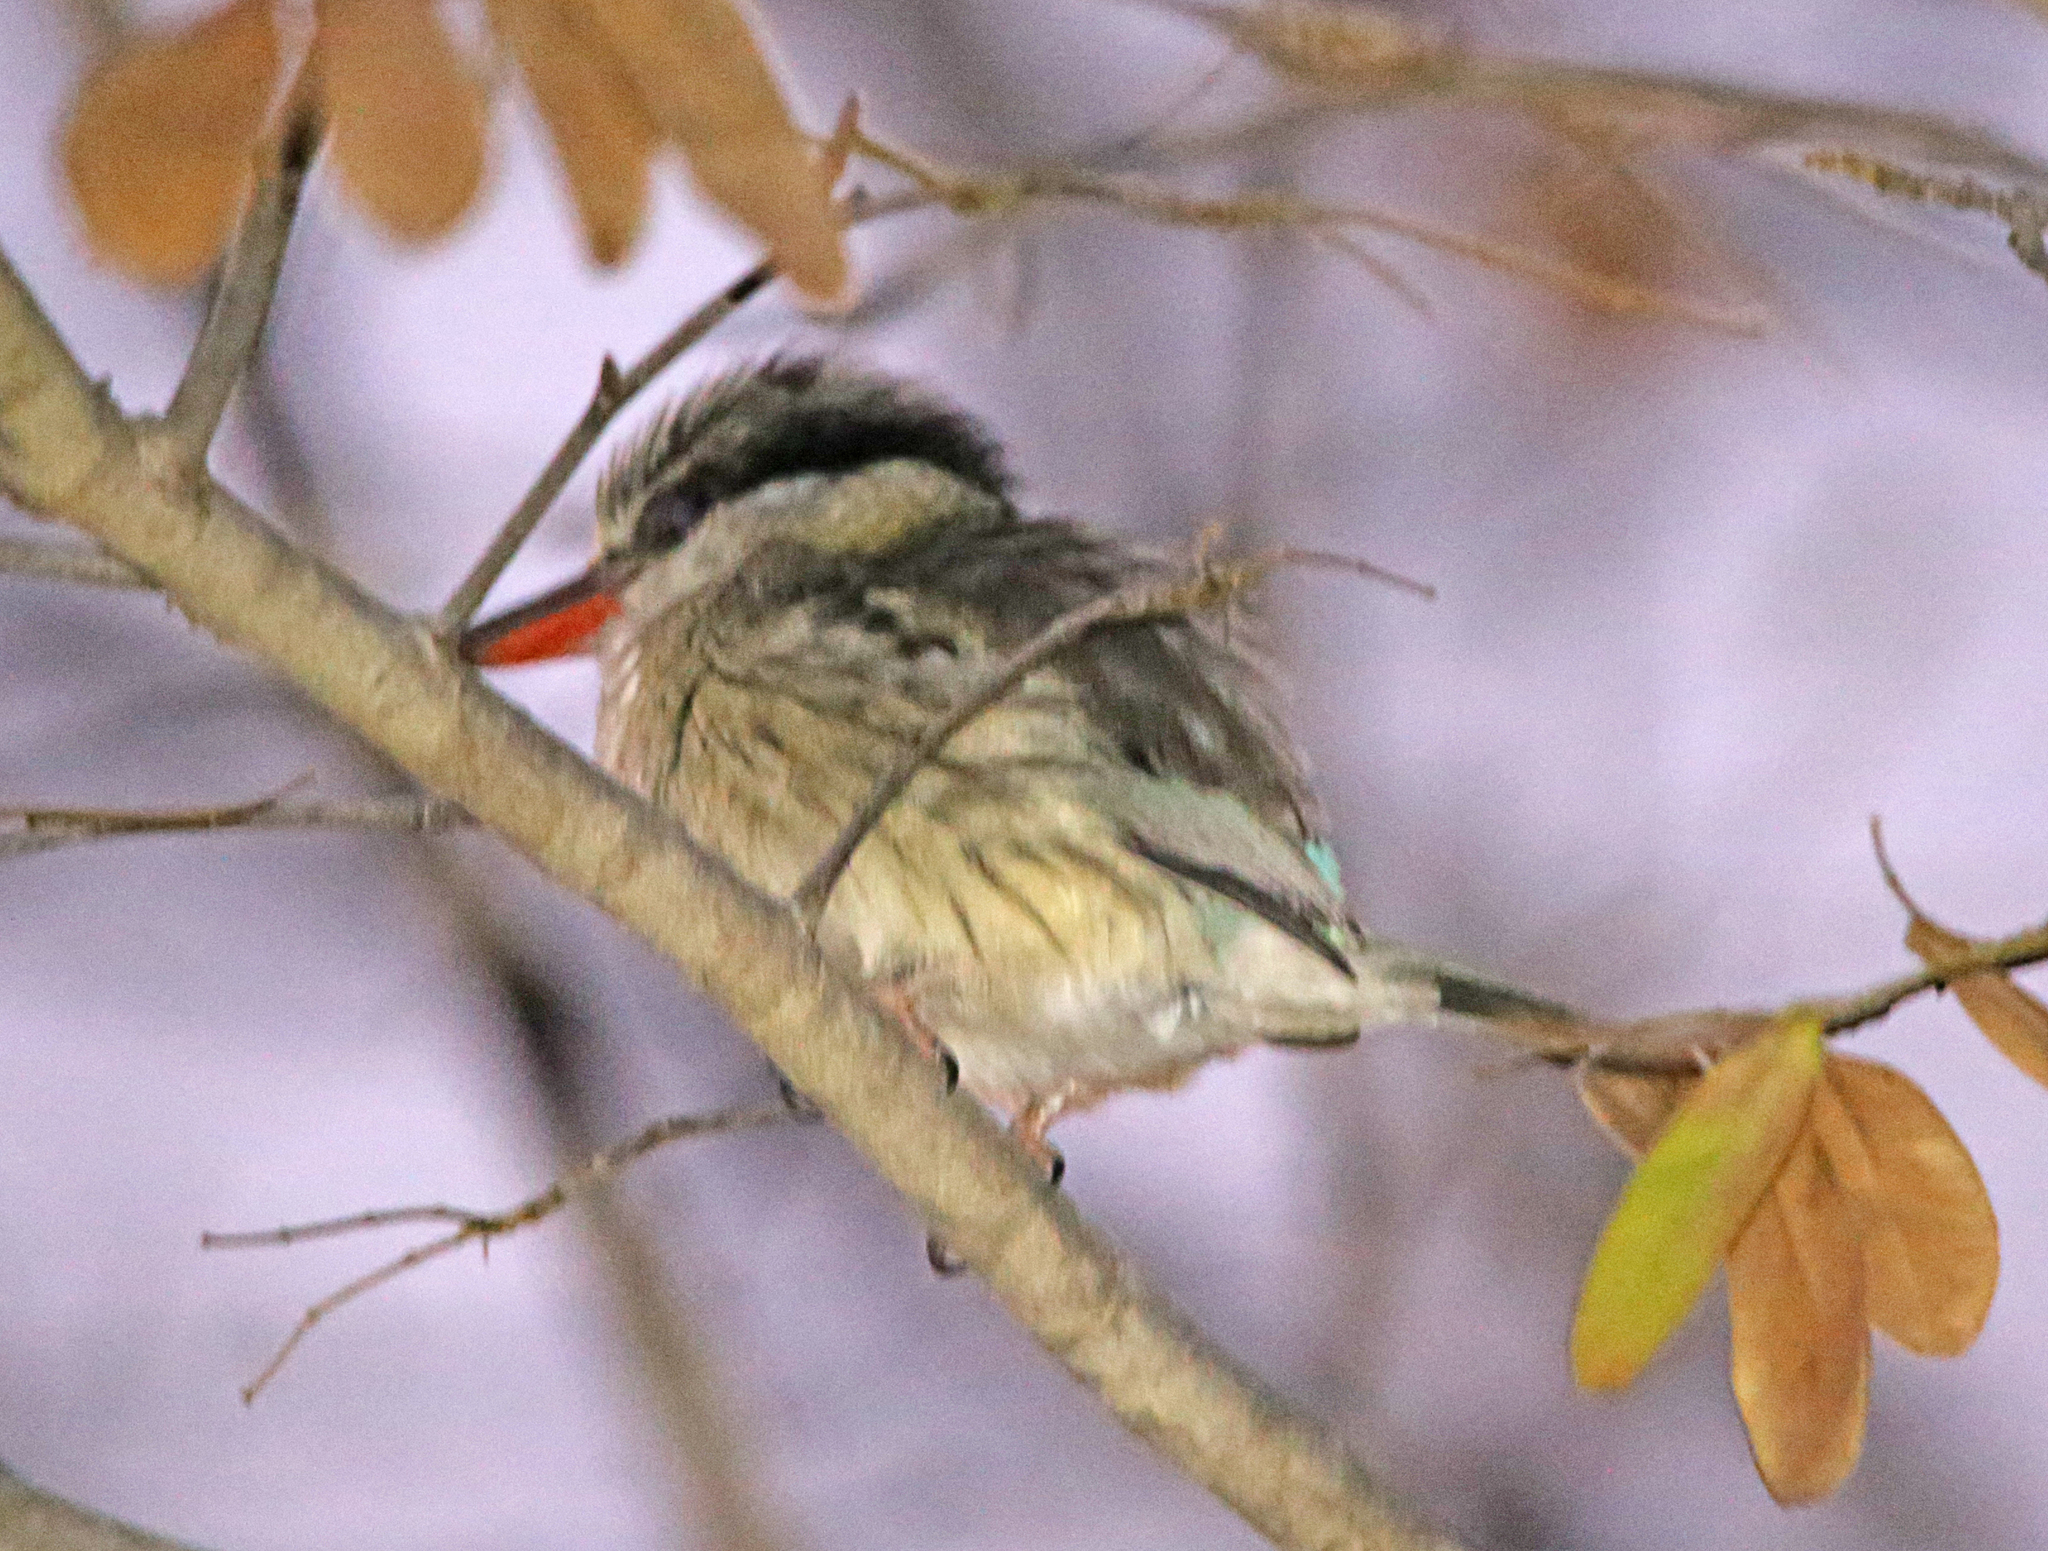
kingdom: Animalia
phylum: Chordata
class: Aves
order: Coraciiformes
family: Alcedinidae
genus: Halcyon
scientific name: Halcyon chelicuti
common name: Striped kingfisher
